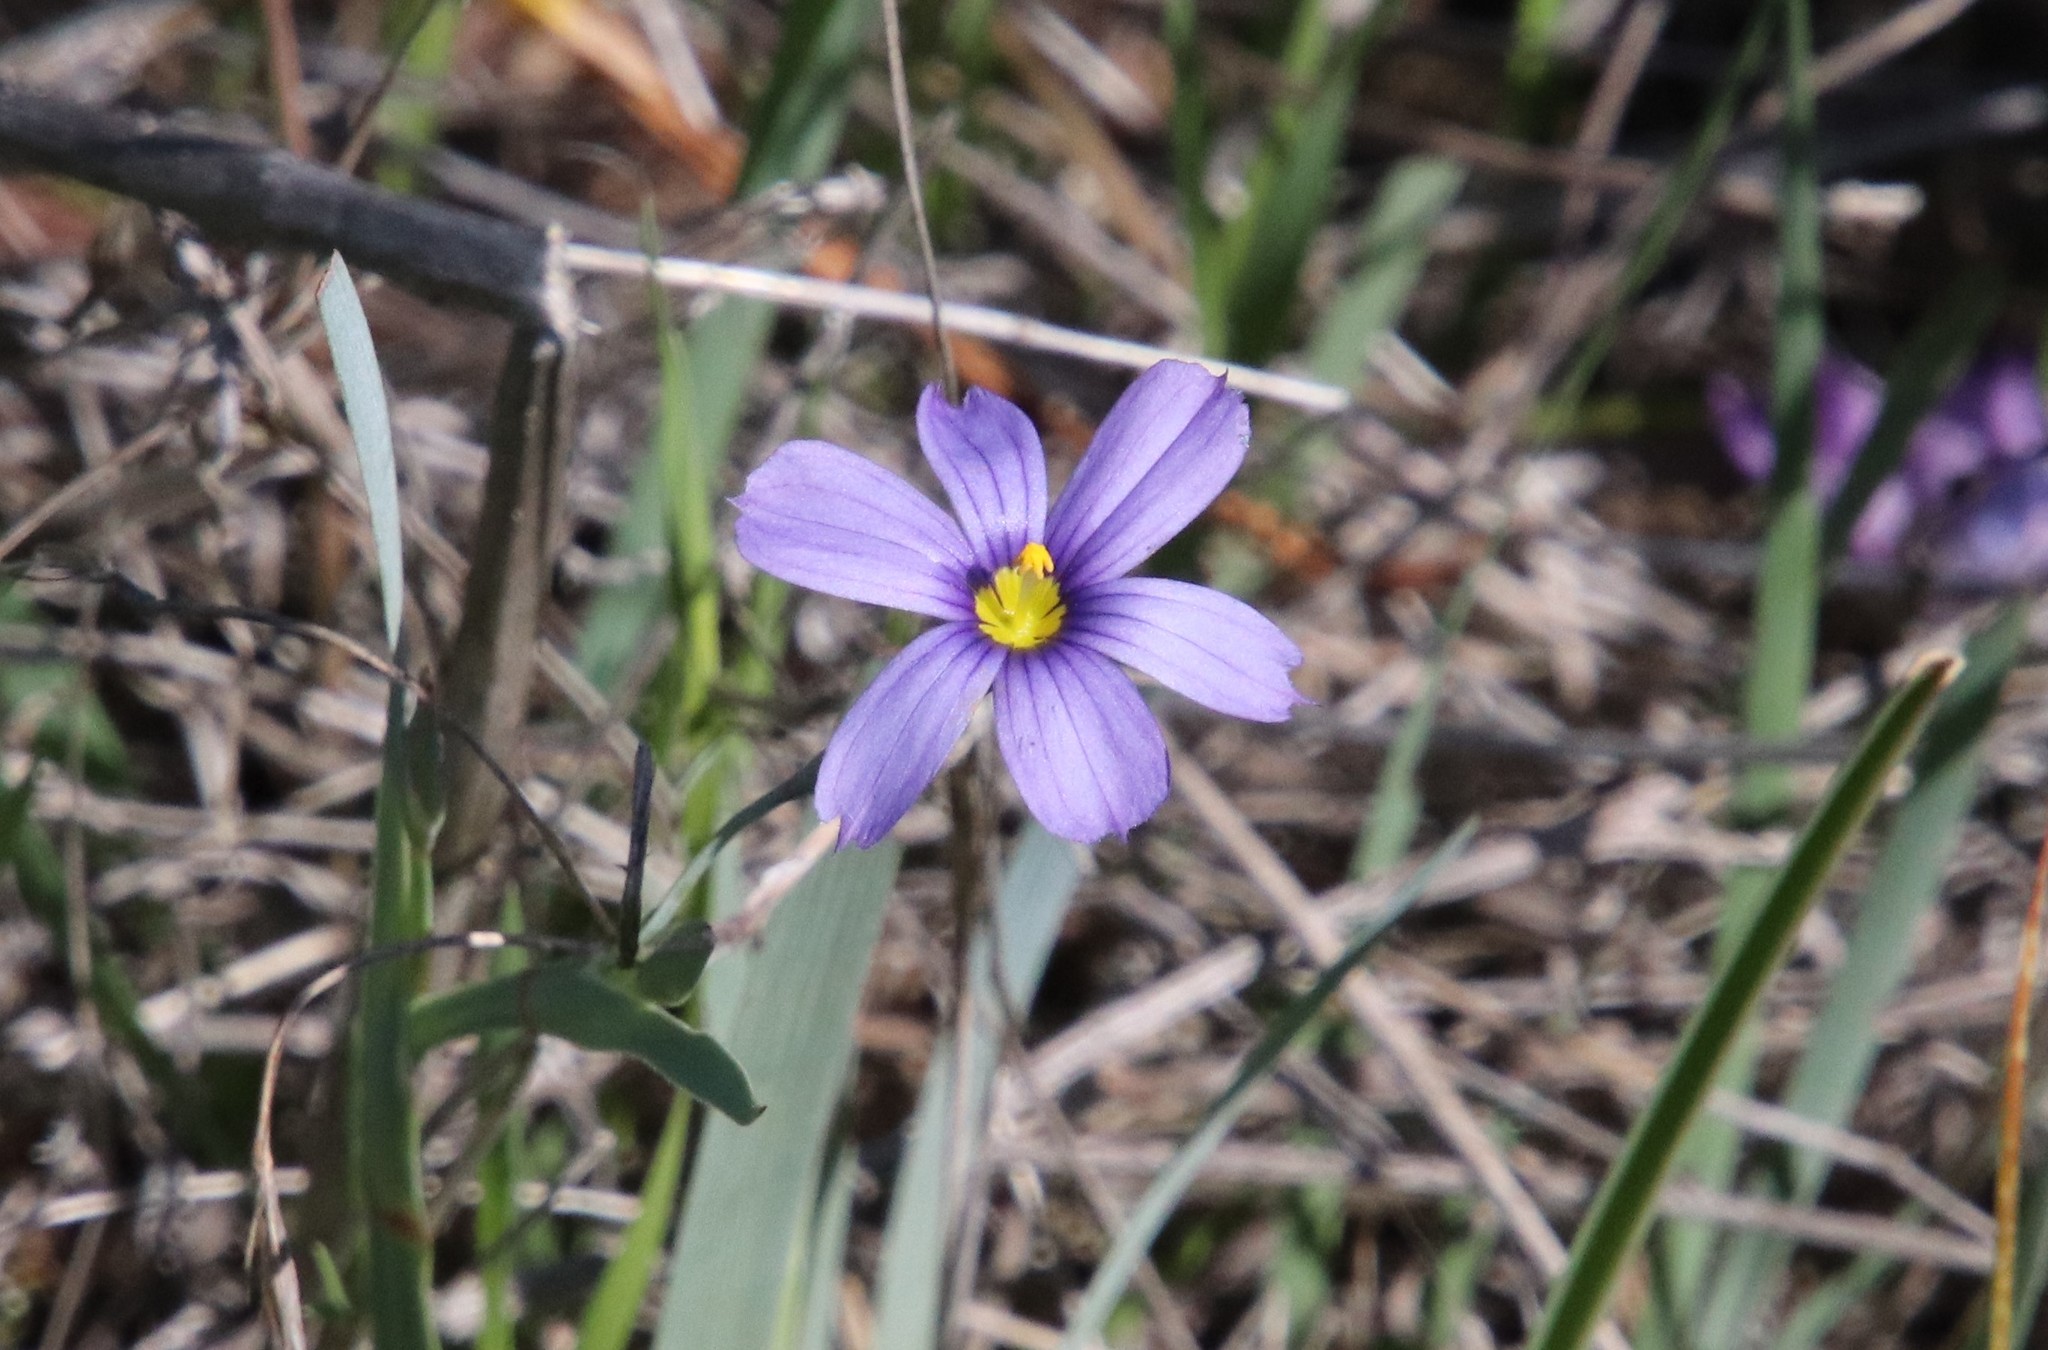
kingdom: Plantae
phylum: Tracheophyta
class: Liliopsida
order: Asparagales
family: Iridaceae
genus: Sisyrinchium
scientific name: Sisyrinchium bellum
